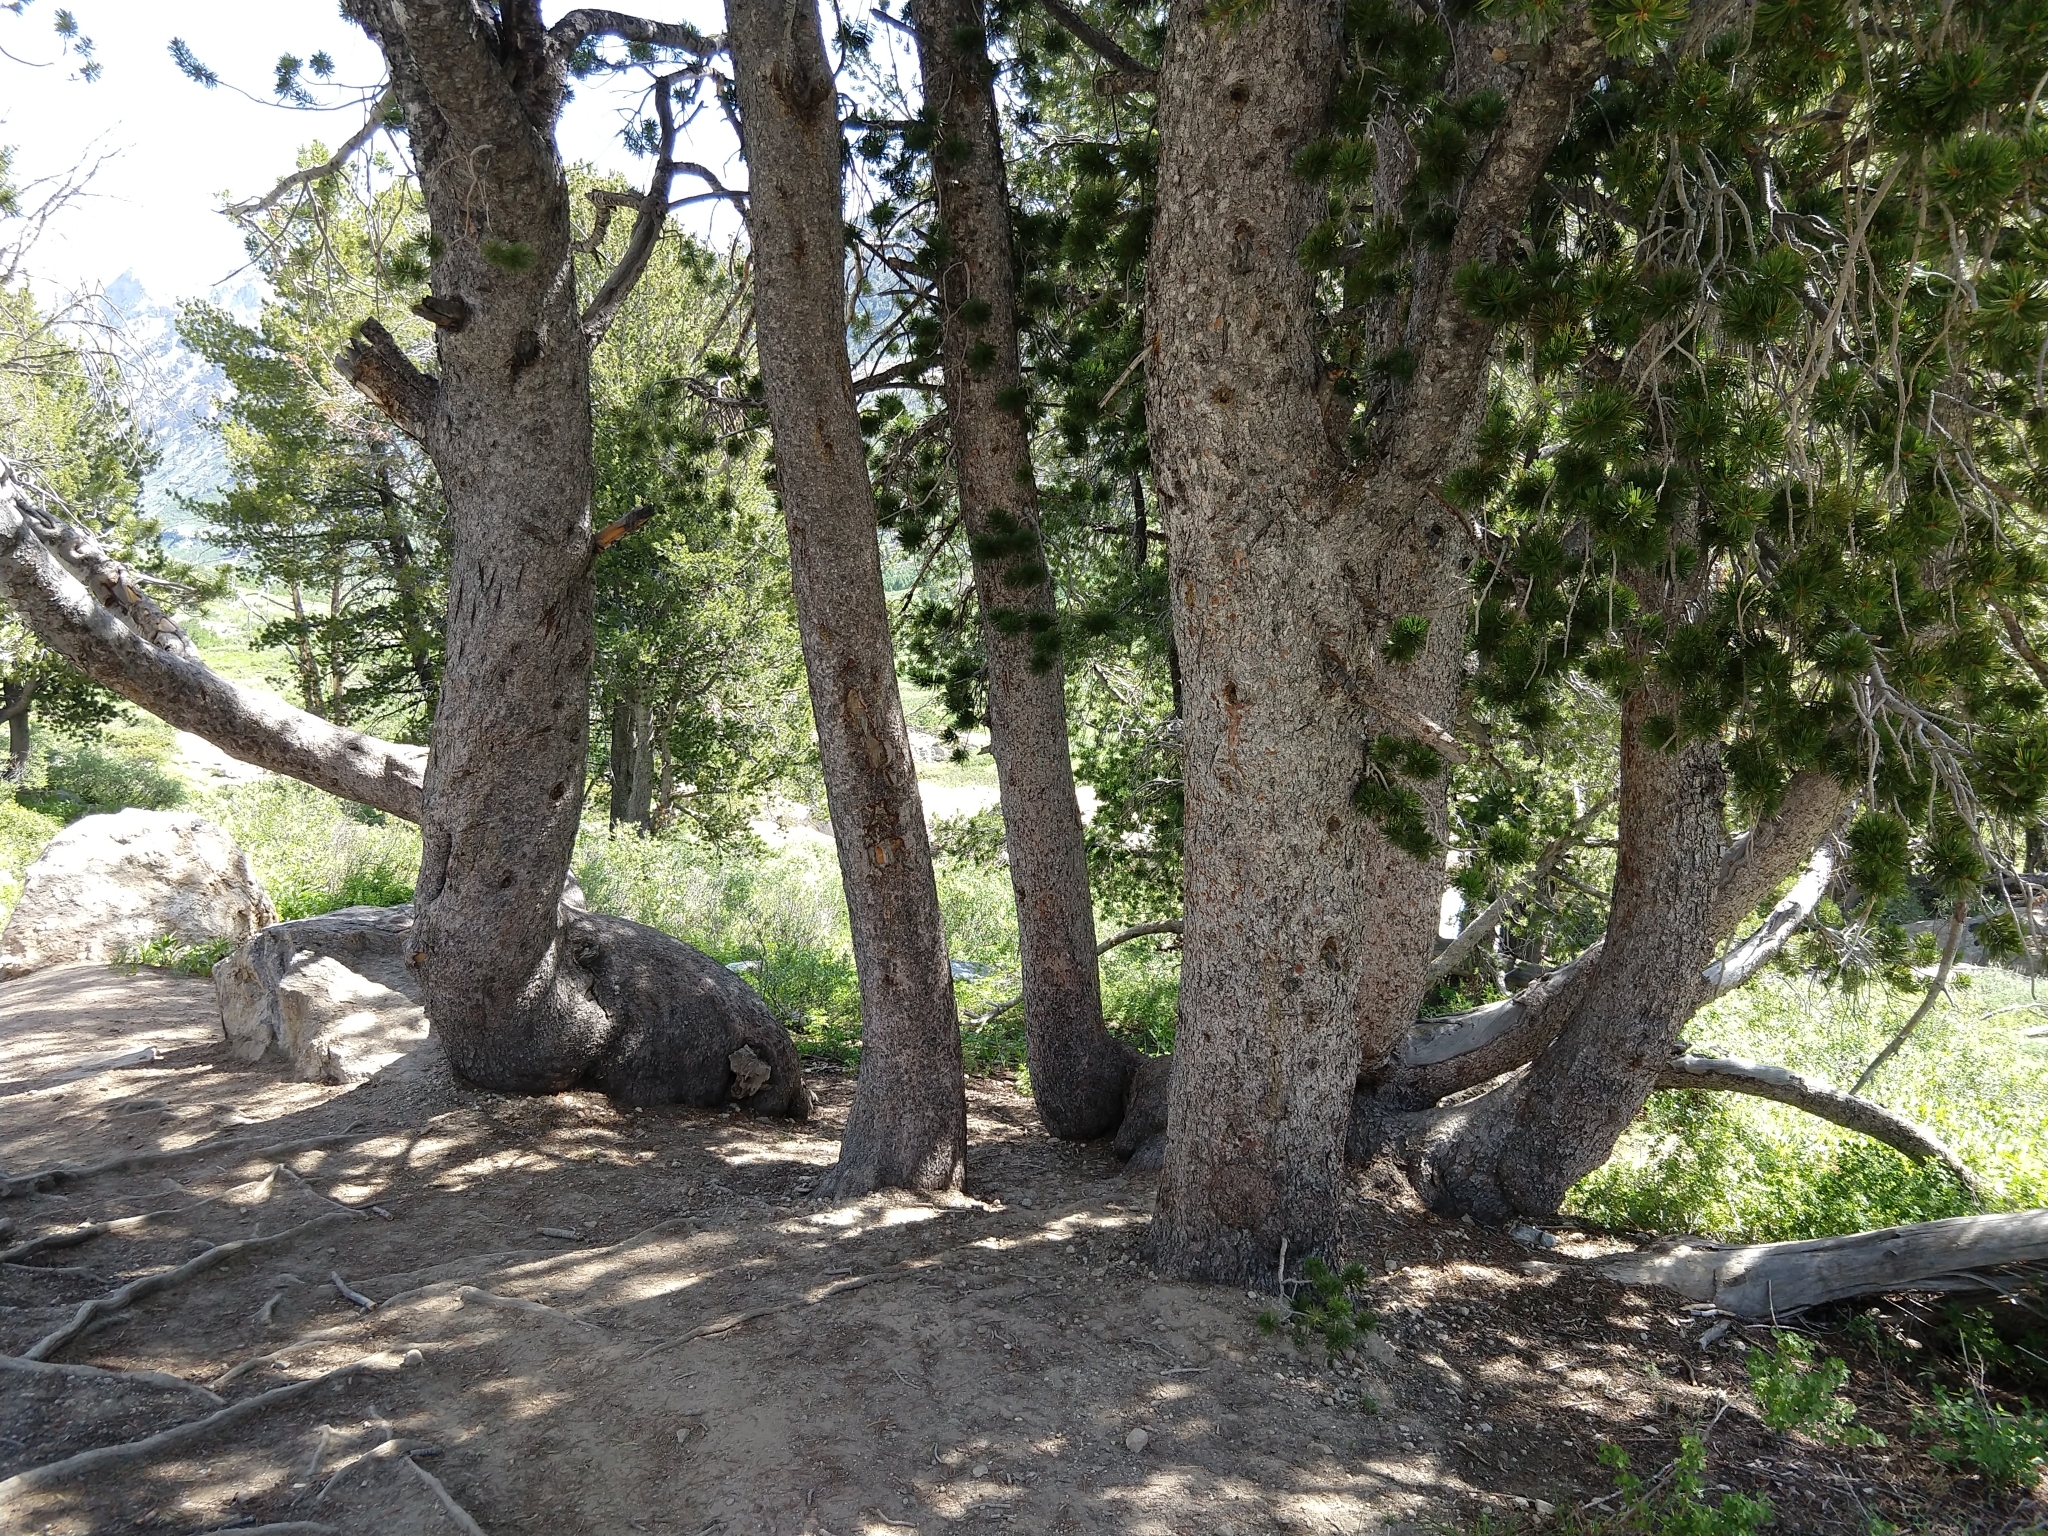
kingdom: Plantae
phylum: Tracheophyta
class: Pinopsida
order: Pinales
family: Pinaceae
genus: Pinus
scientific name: Pinus albicaulis
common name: Whitebark pine
